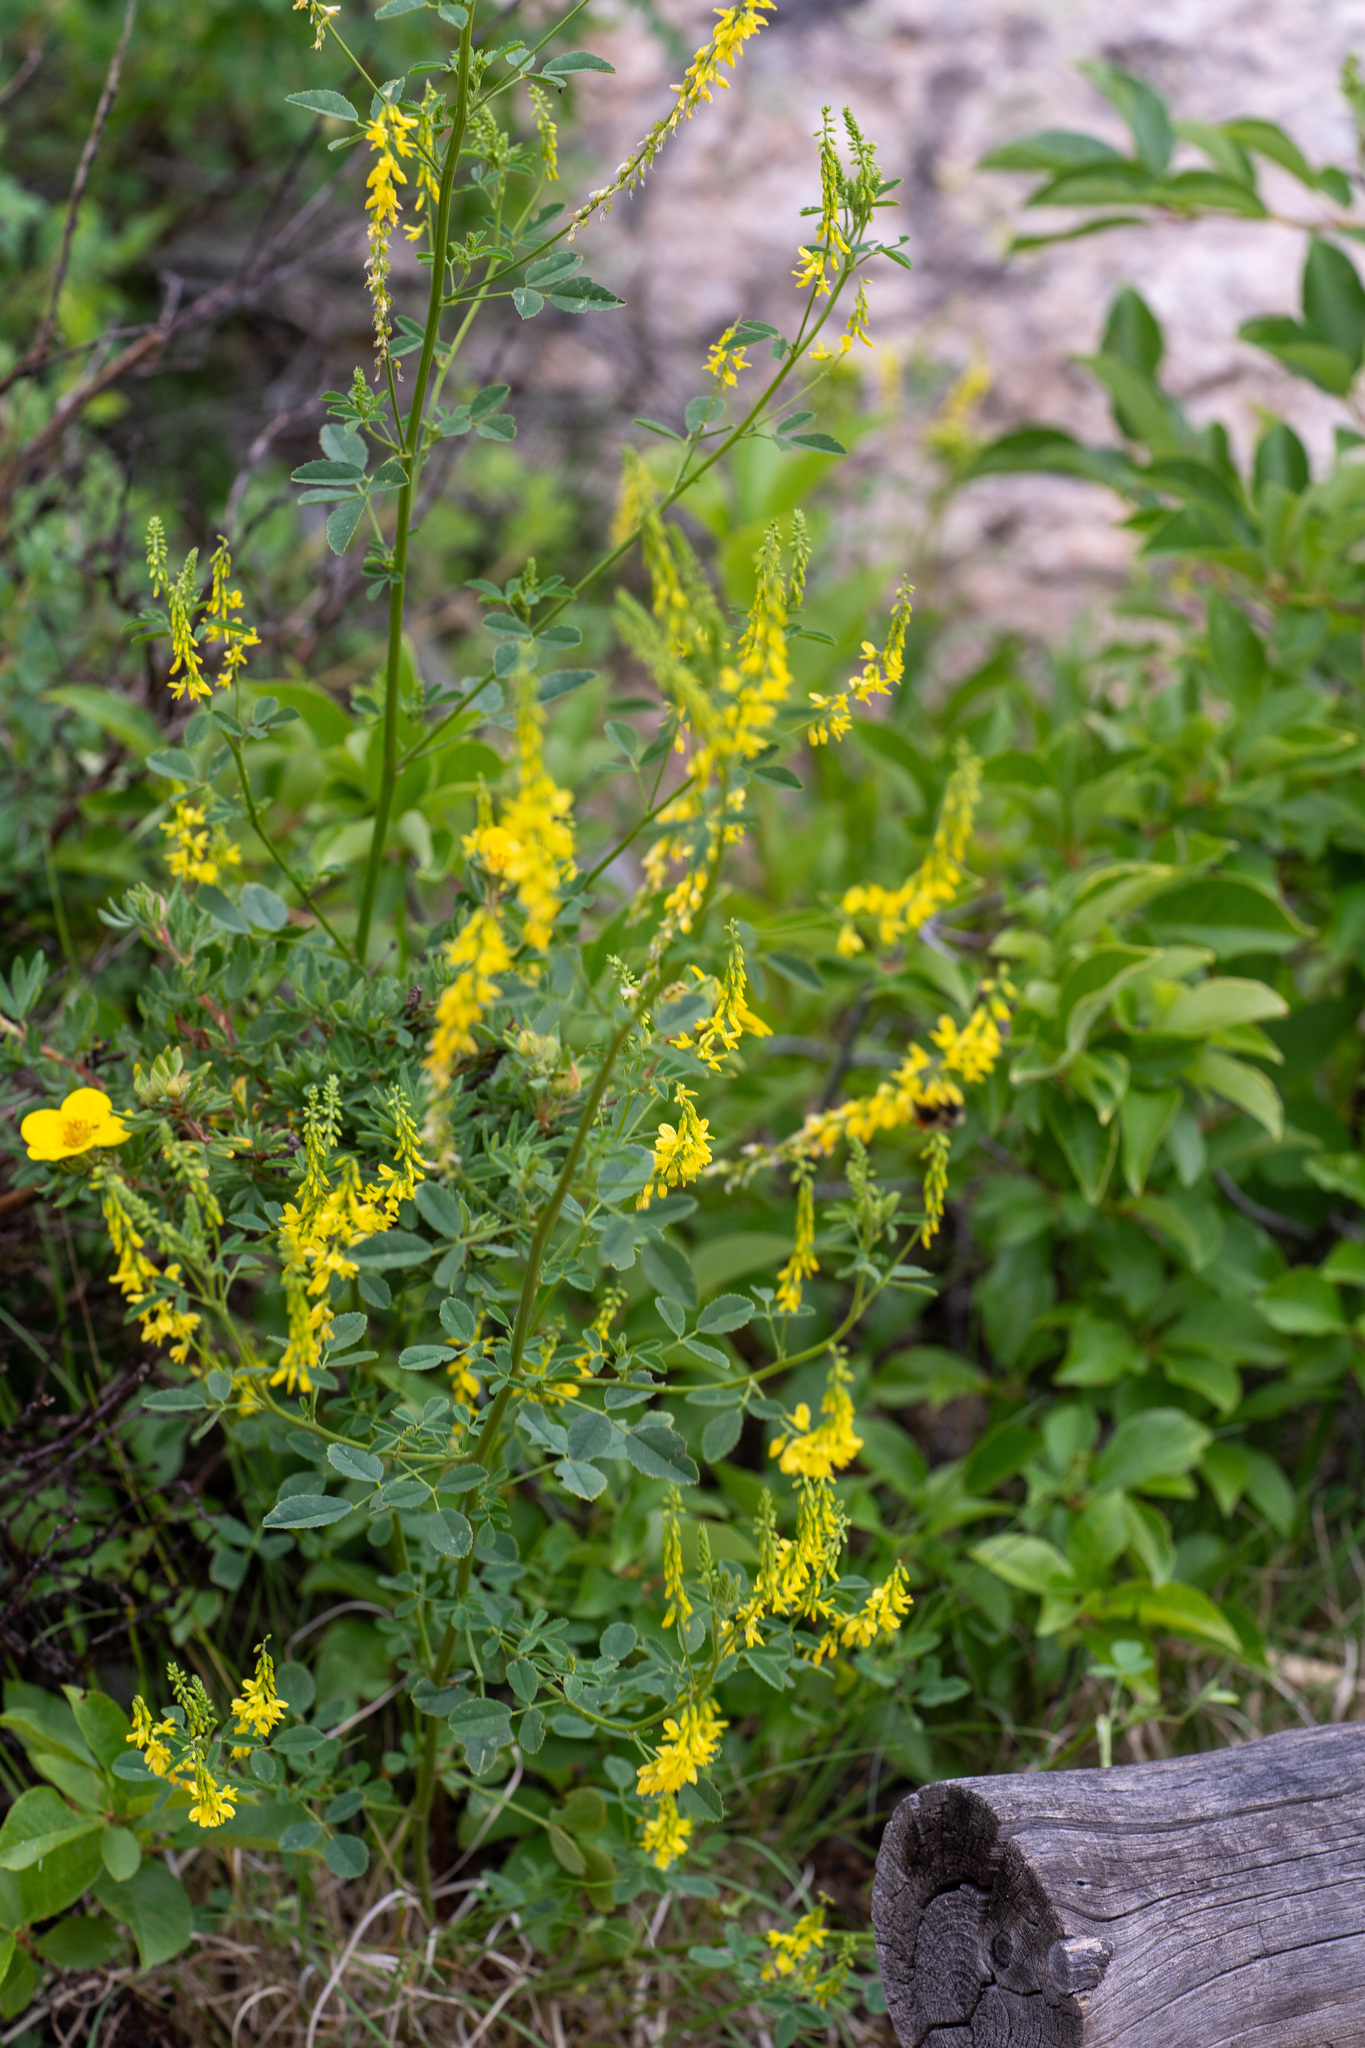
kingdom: Plantae
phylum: Tracheophyta
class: Magnoliopsida
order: Fabales
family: Fabaceae
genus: Melilotus
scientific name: Melilotus officinalis
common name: Sweetclover
